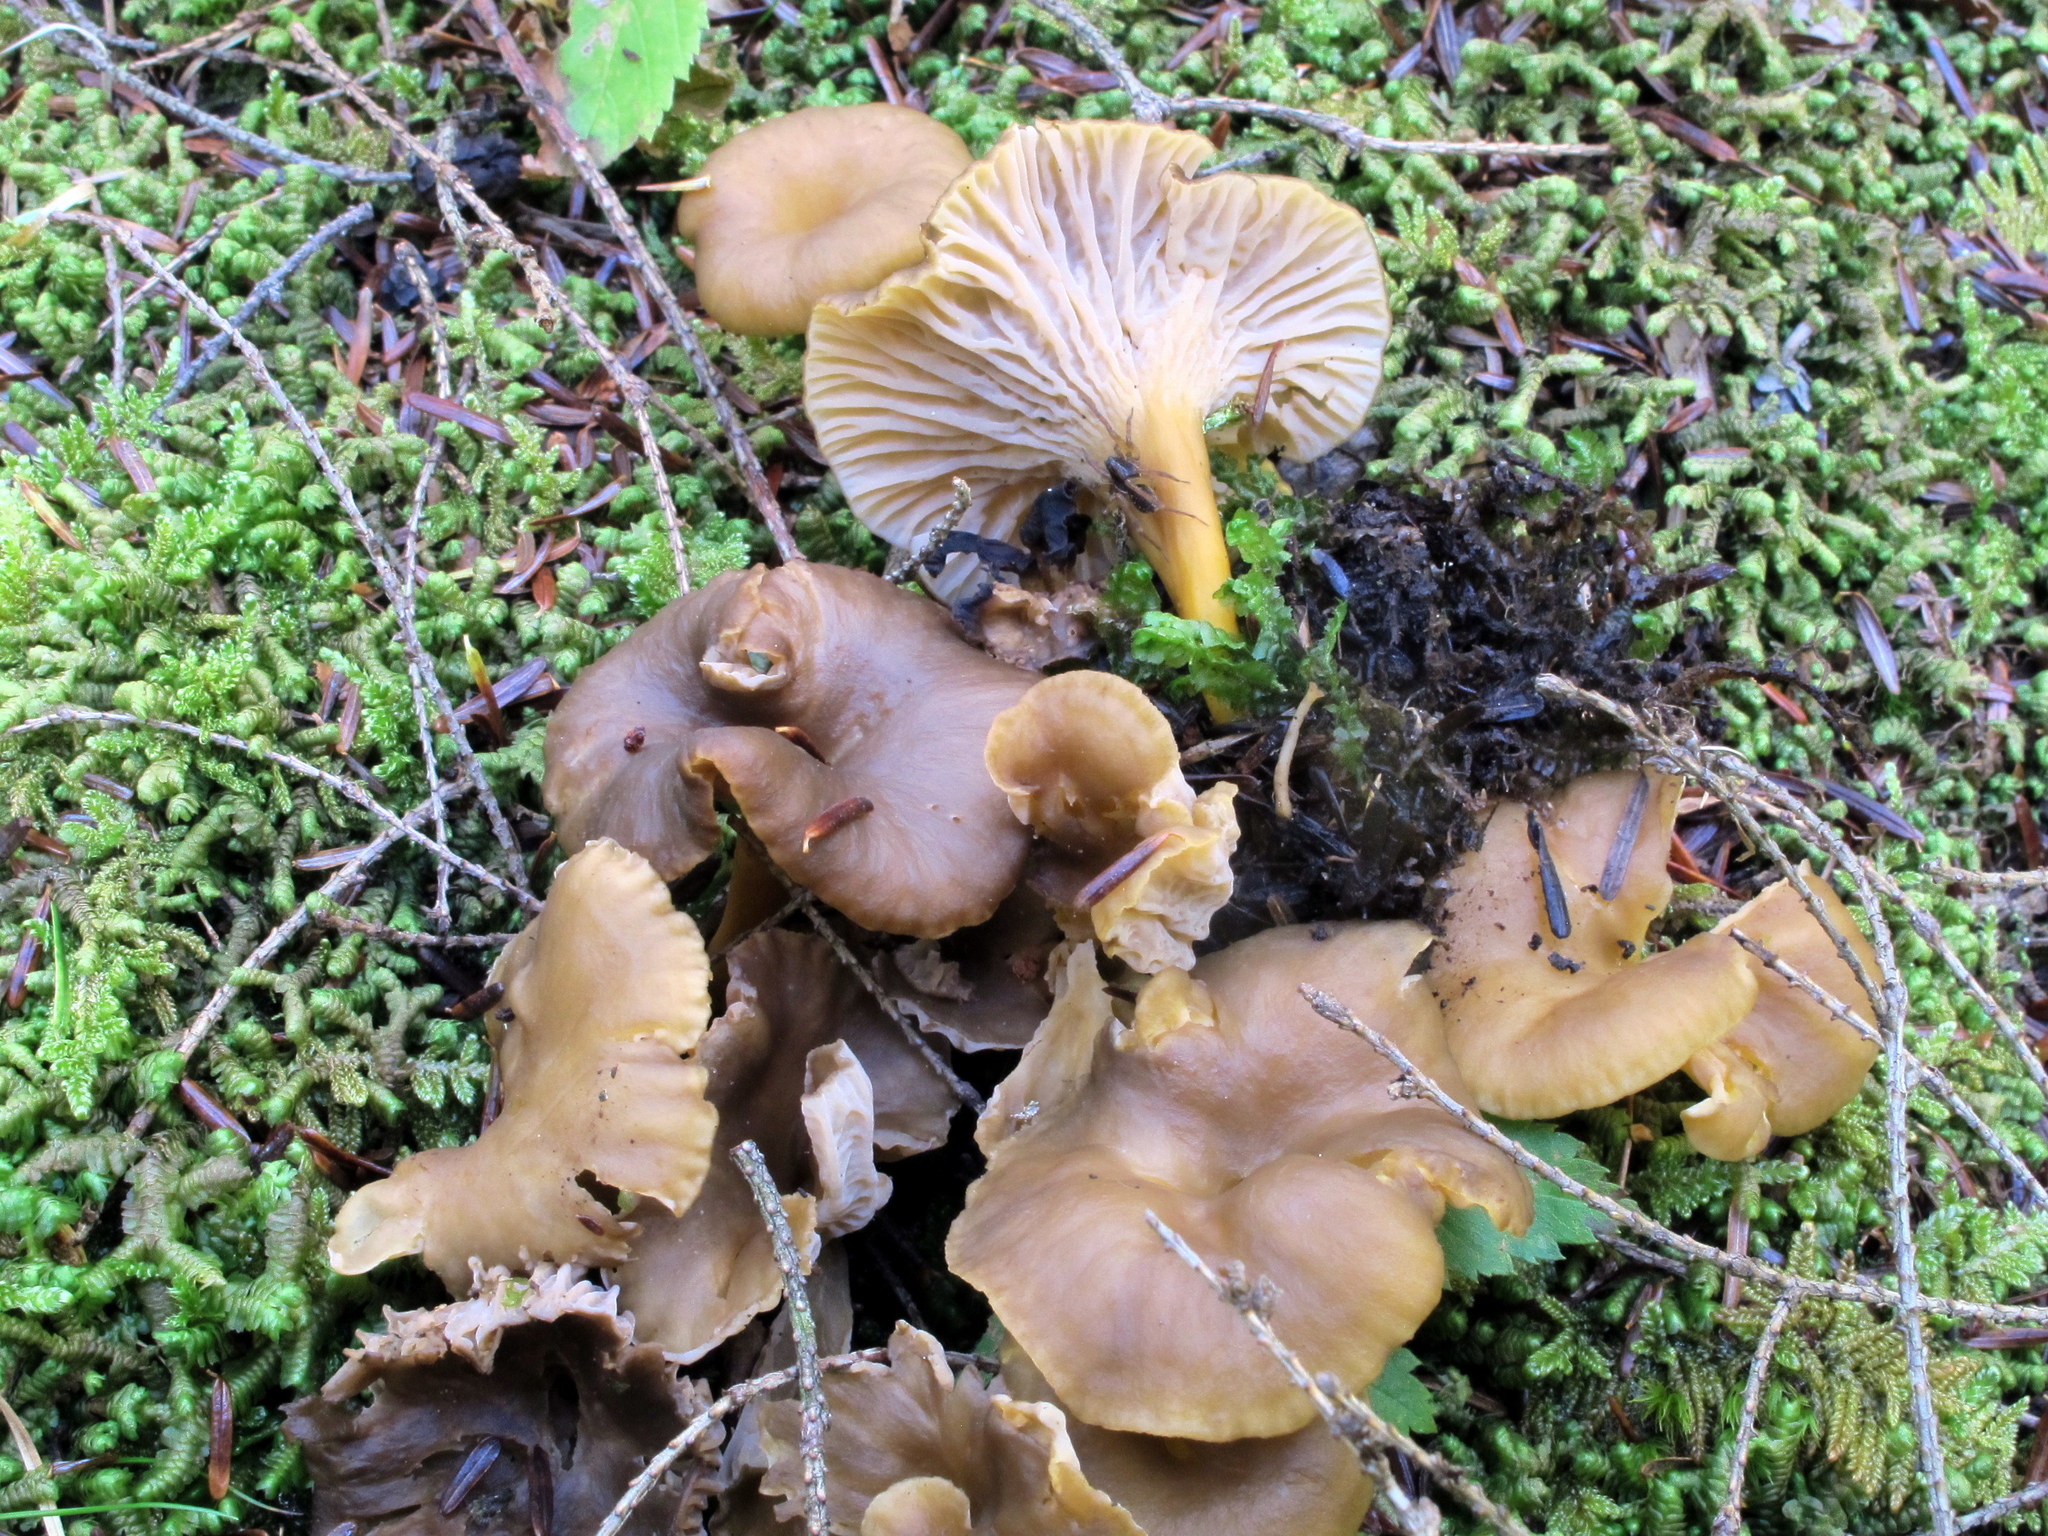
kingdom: Fungi
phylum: Basidiomycota
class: Agaricomycetes
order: Cantharellales
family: Hydnaceae
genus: Craterellus
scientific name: Craterellus tubaeformis
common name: Yellowfoot
